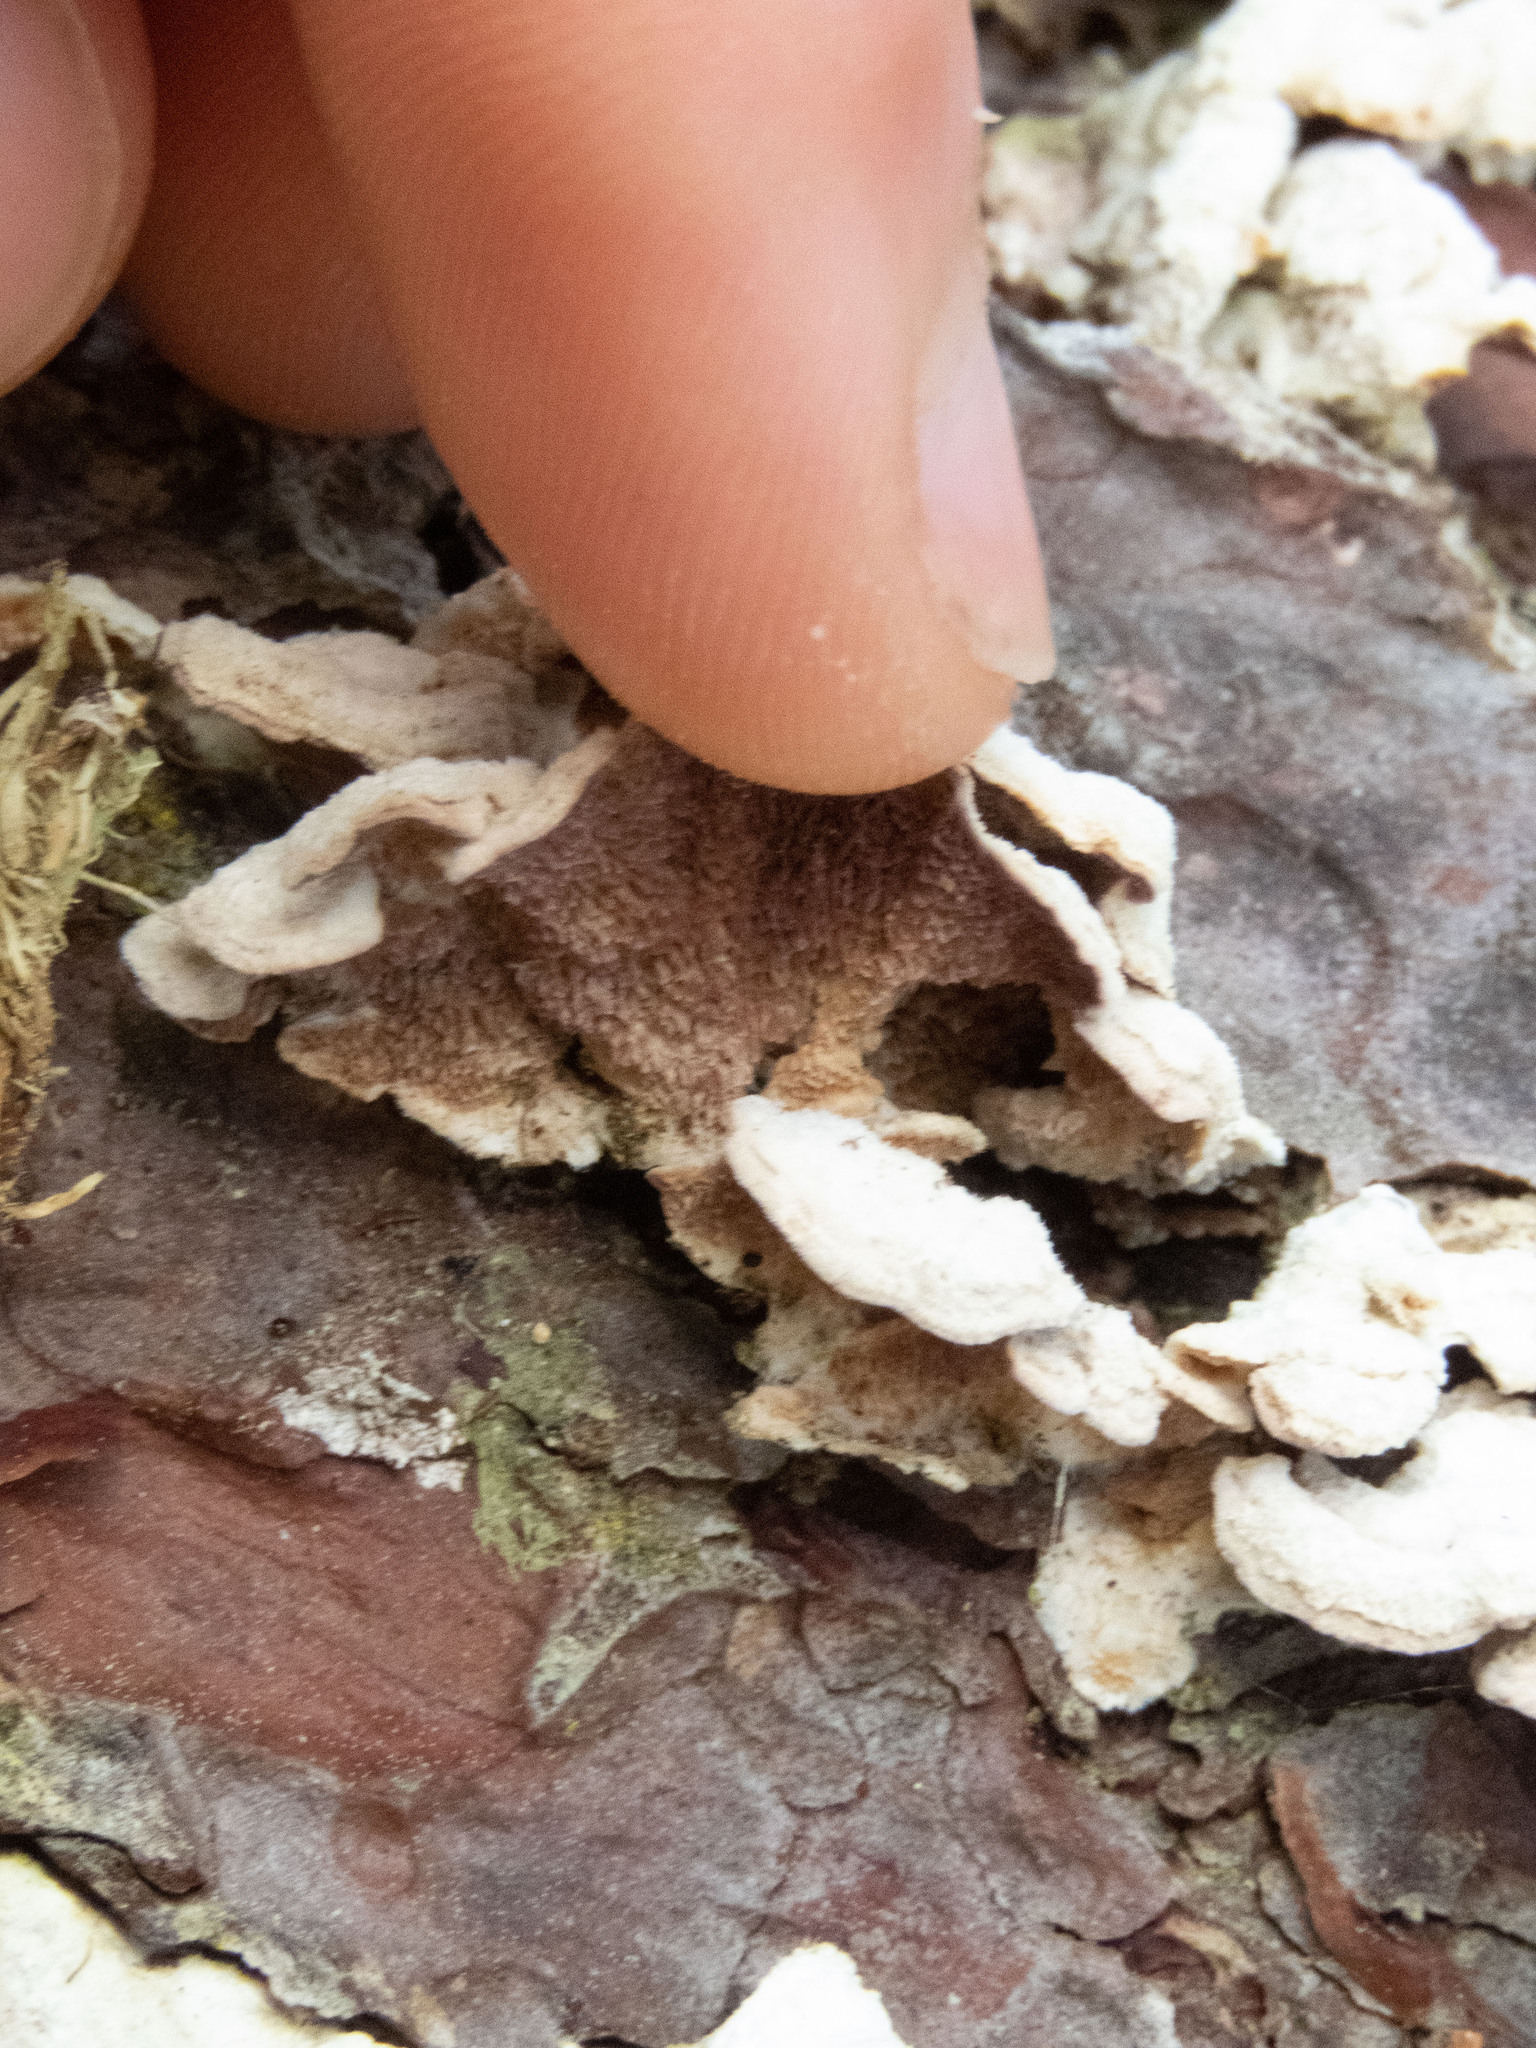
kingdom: Fungi
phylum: Basidiomycota
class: Agaricomycetes
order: Hymenochaetales
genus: Trichaptum
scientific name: Trichaptum fuscoviolaceum
